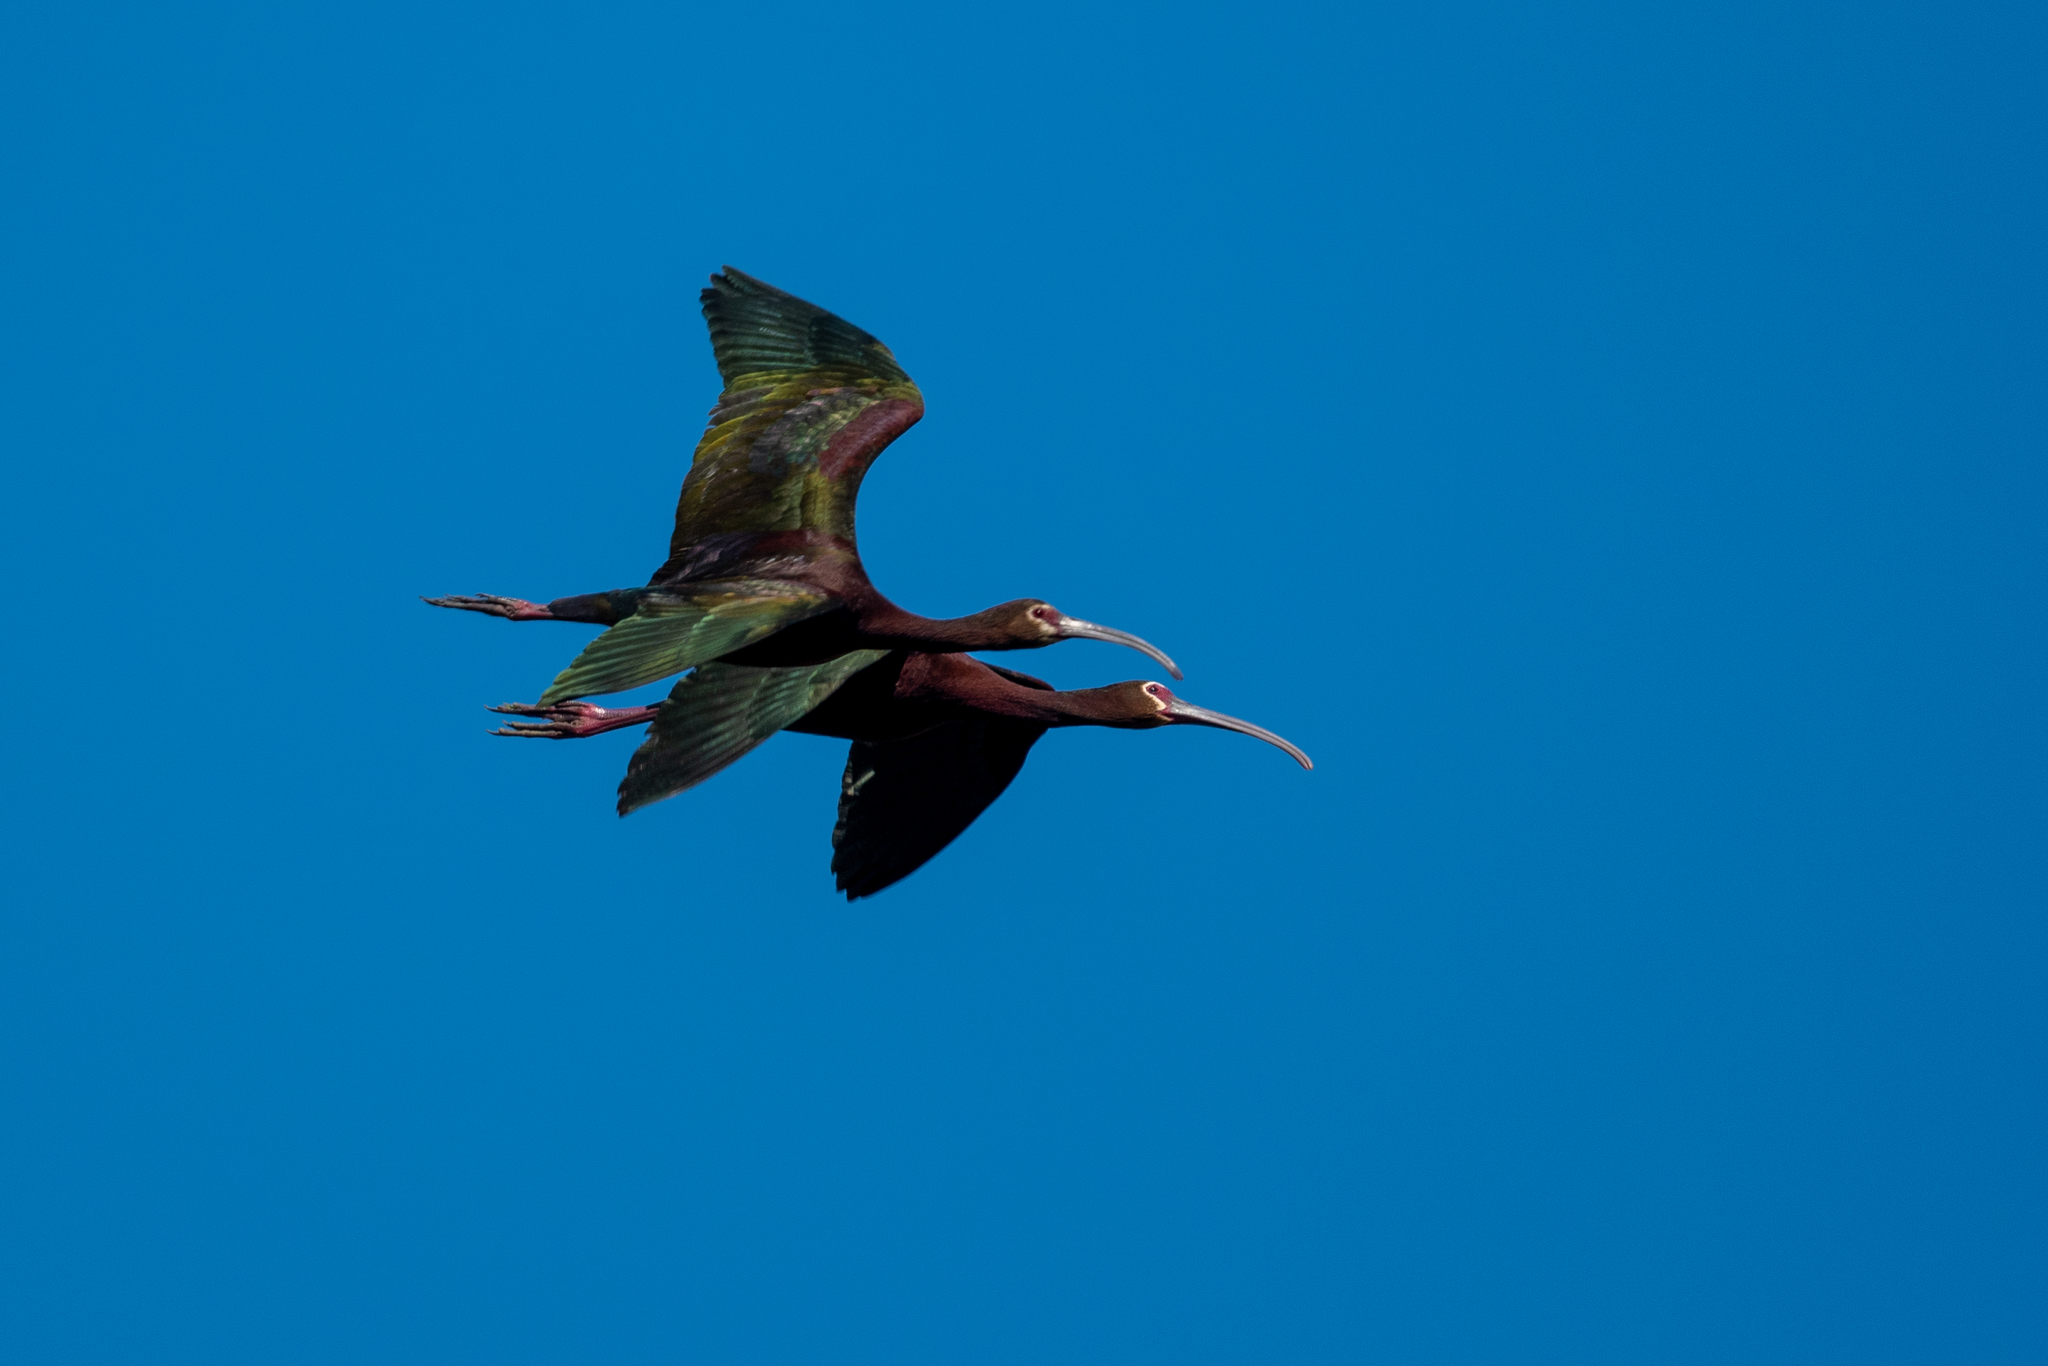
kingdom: Animalia
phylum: Chordata
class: Aves
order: Pelecaniformes
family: Threskiornithidae
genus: Plegadis
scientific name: Plegadis chihi
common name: White-faced ibis
